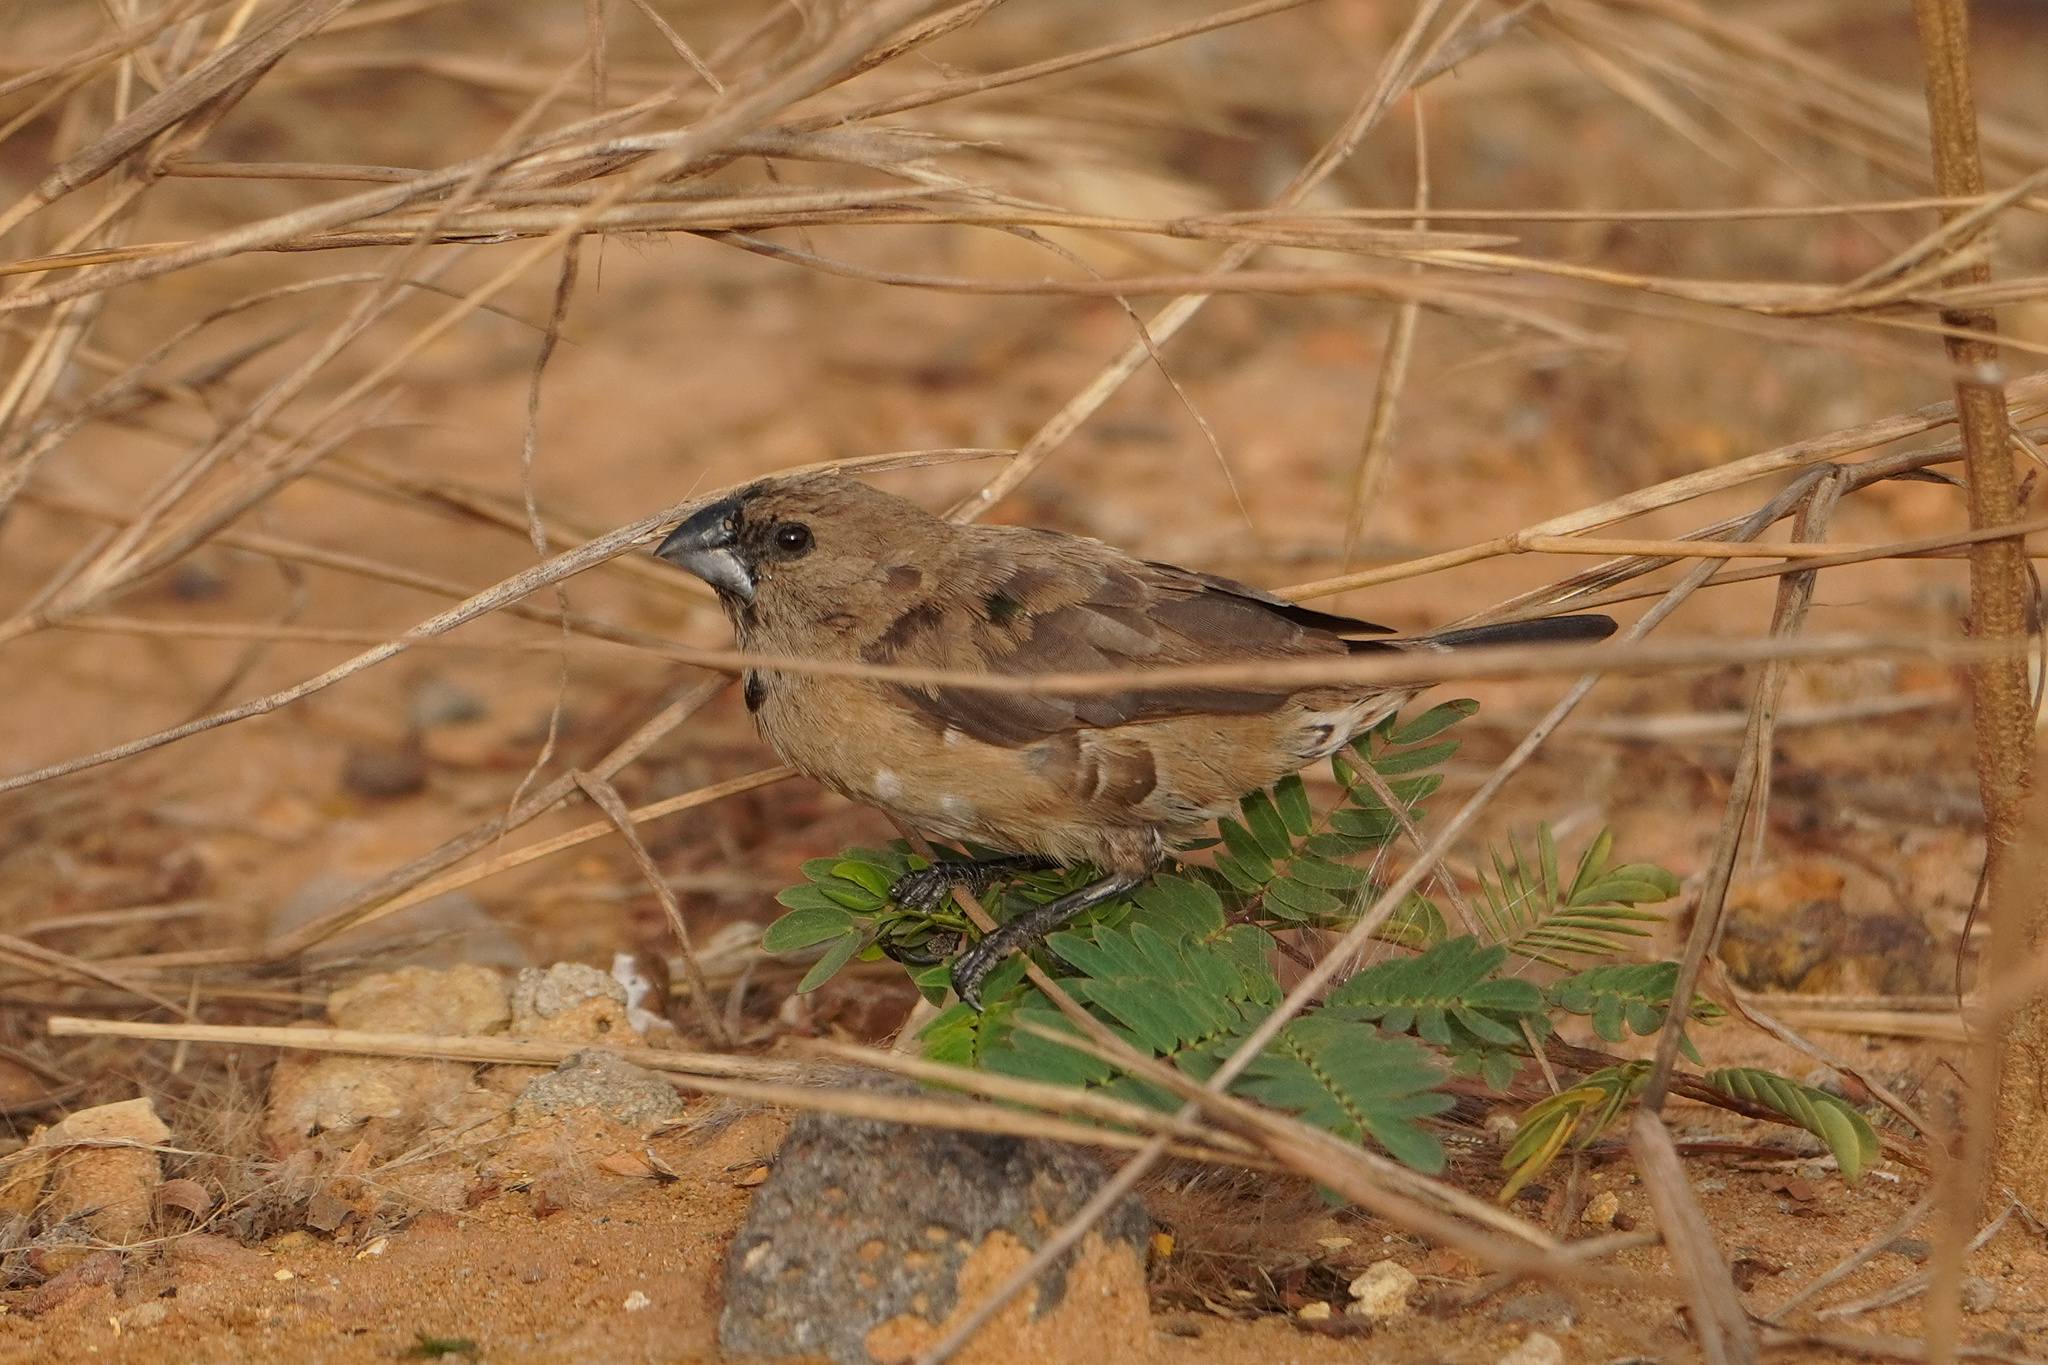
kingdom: Animalia
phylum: Chordata
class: Aves
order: Passeriformes
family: Estrildidae
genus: Lonchura
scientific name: Lonchura cucullata
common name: Bronze mannikin
